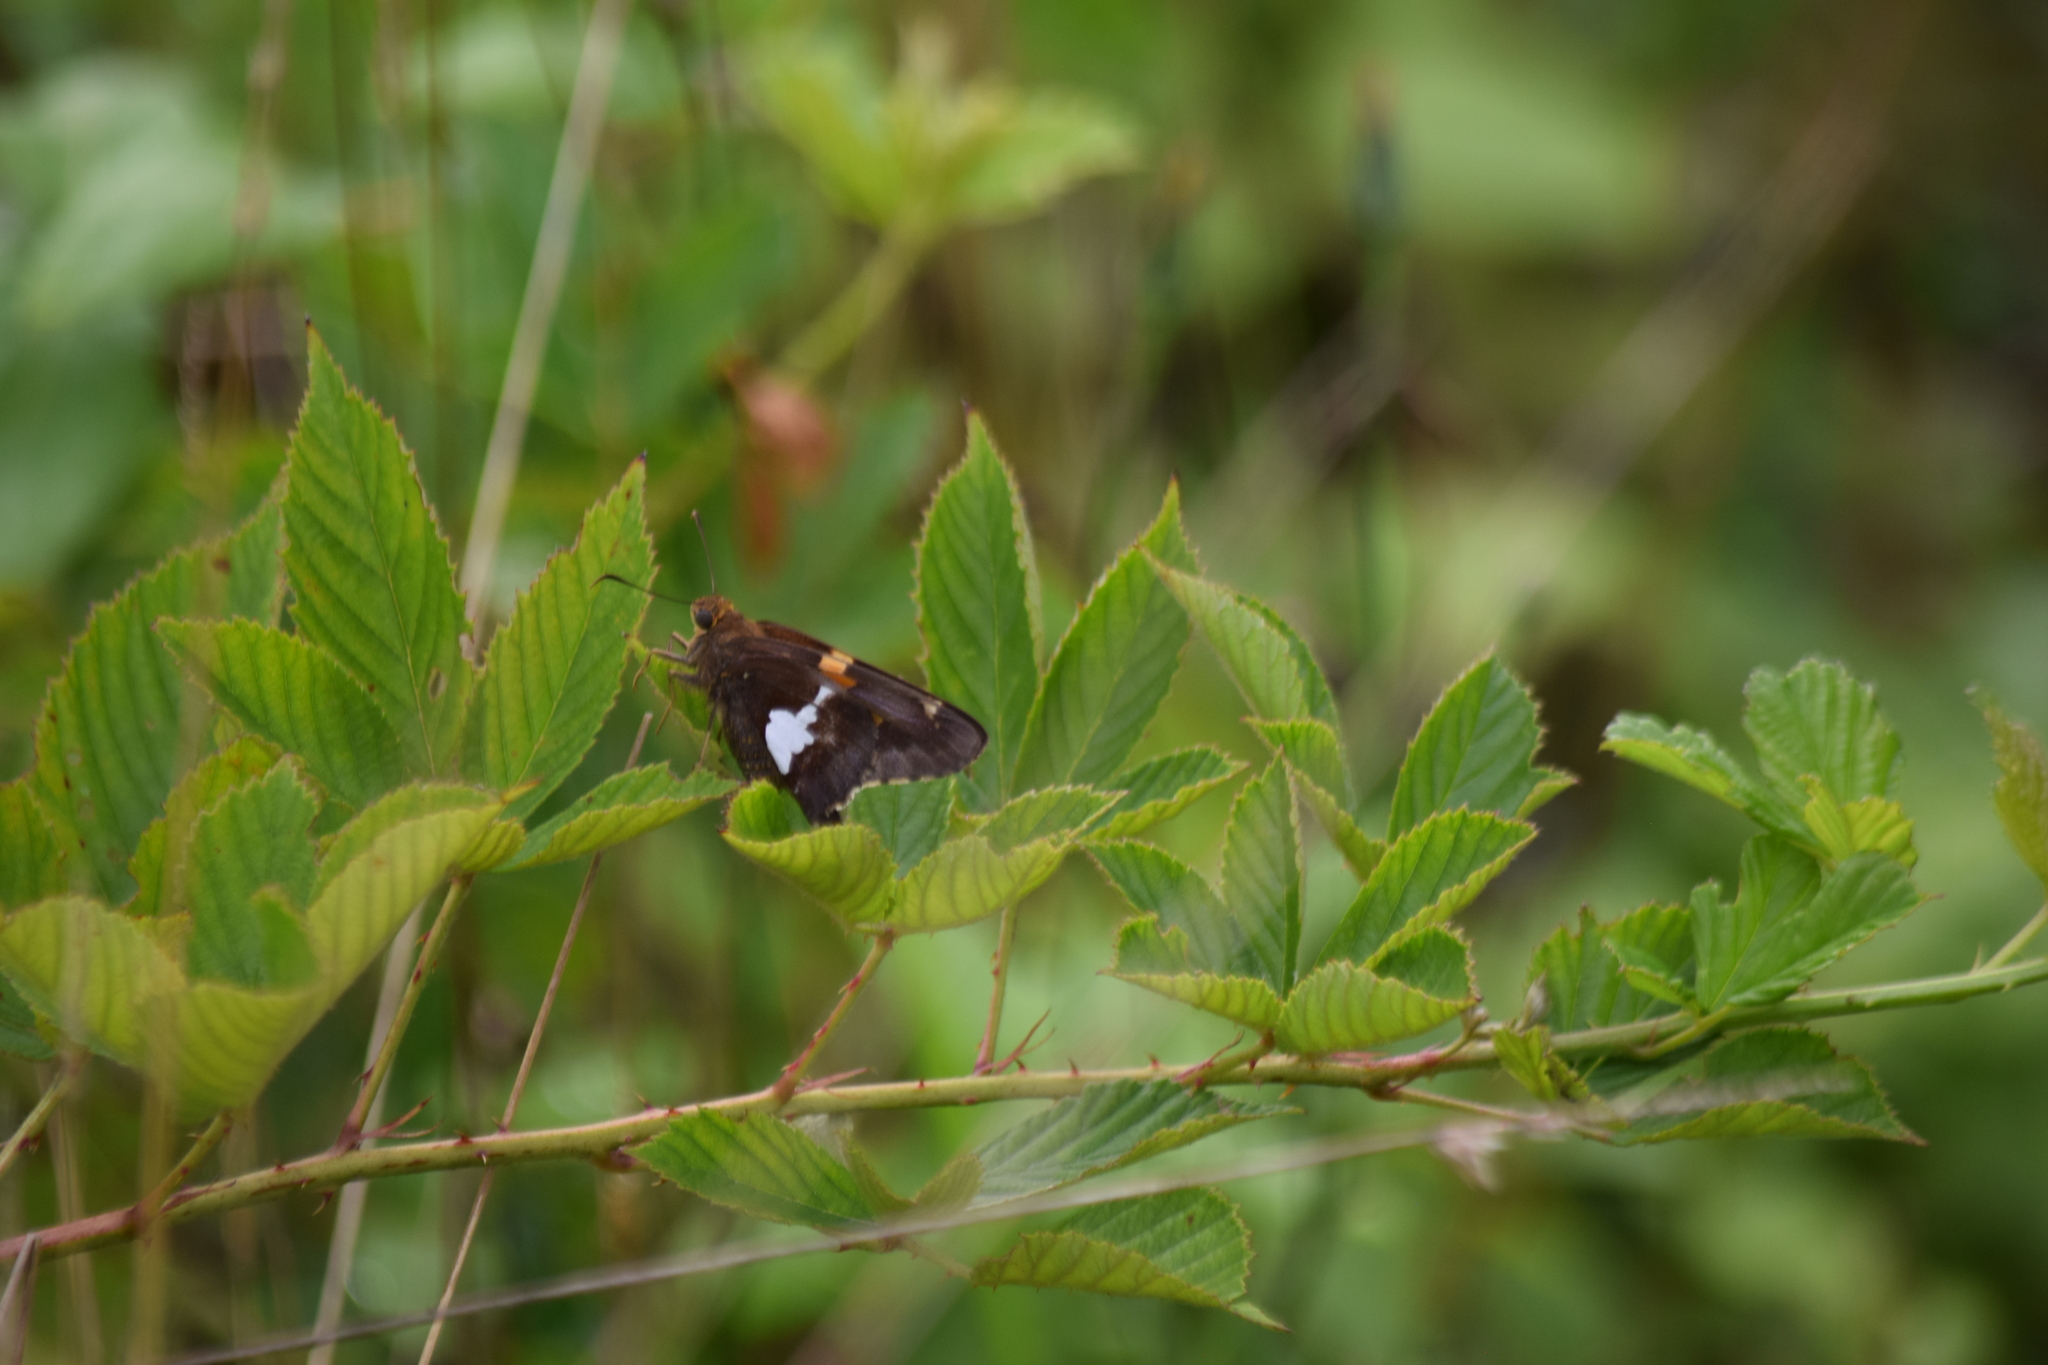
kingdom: Animalia
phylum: Arthropoda
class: Insecta
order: Lepidoptera
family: Hesperiidae
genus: Epargyreus
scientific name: Epargyreus clarus
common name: Silver-spotted skipper
